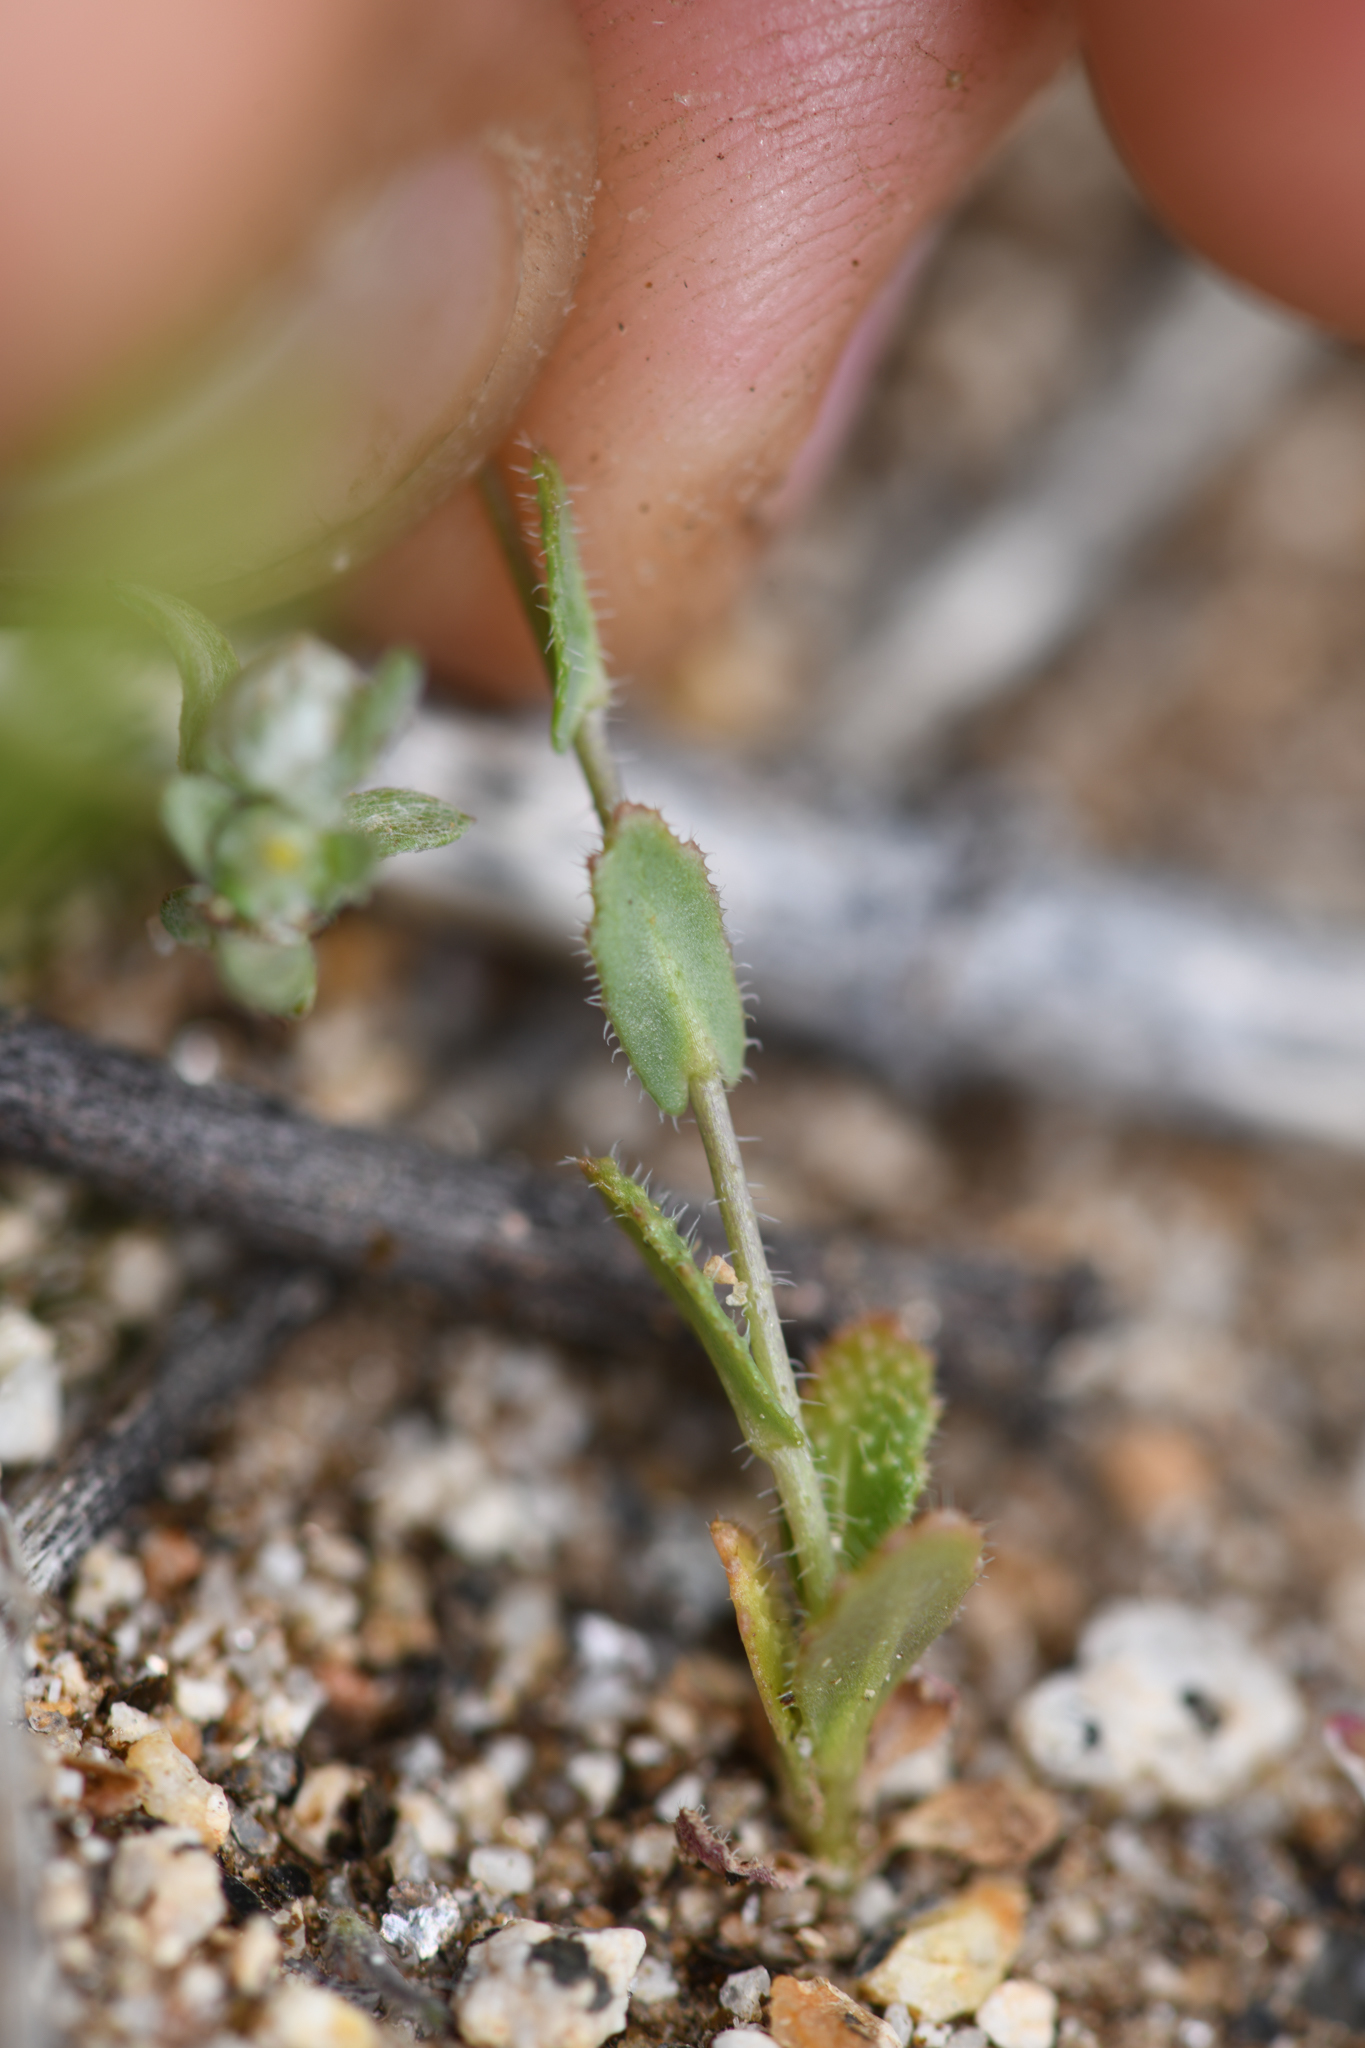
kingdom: Plantae
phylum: Tracheophyta
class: Magnoliopsida
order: Brassicales
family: Brassicaceae
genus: Streptanthus
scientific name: Streptanthus simulans
